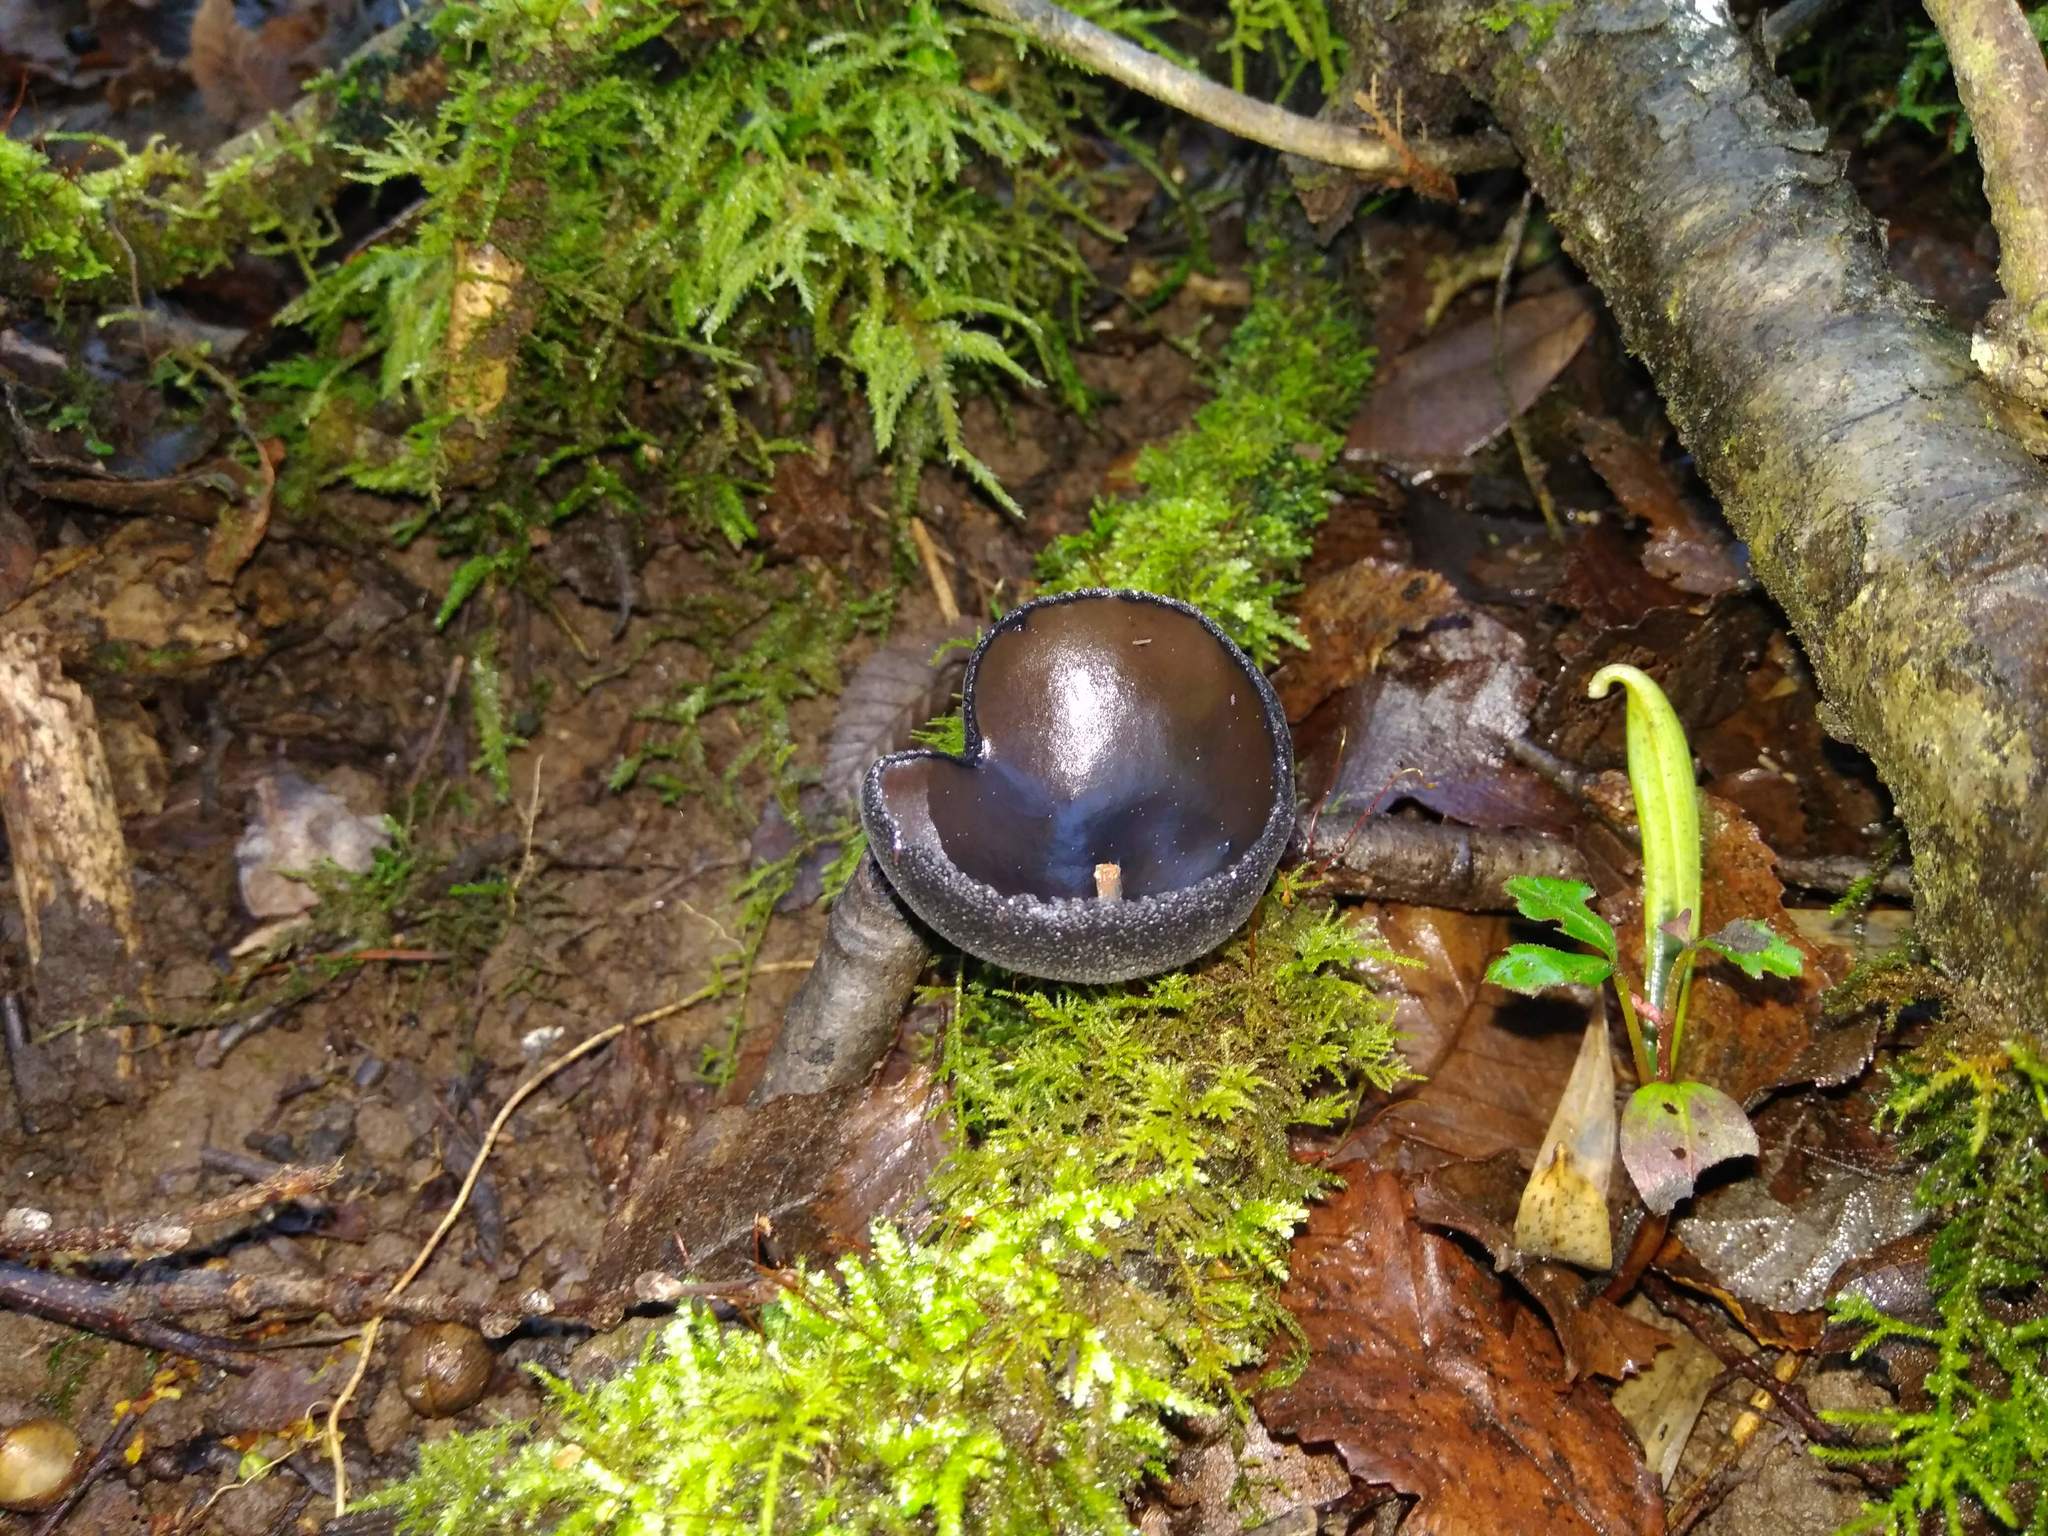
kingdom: Fungi
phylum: Ascomycota
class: Pezizomycetes
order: Pezizales
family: Sarcosomataceae
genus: Plectania
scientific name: Plectania chilensis
